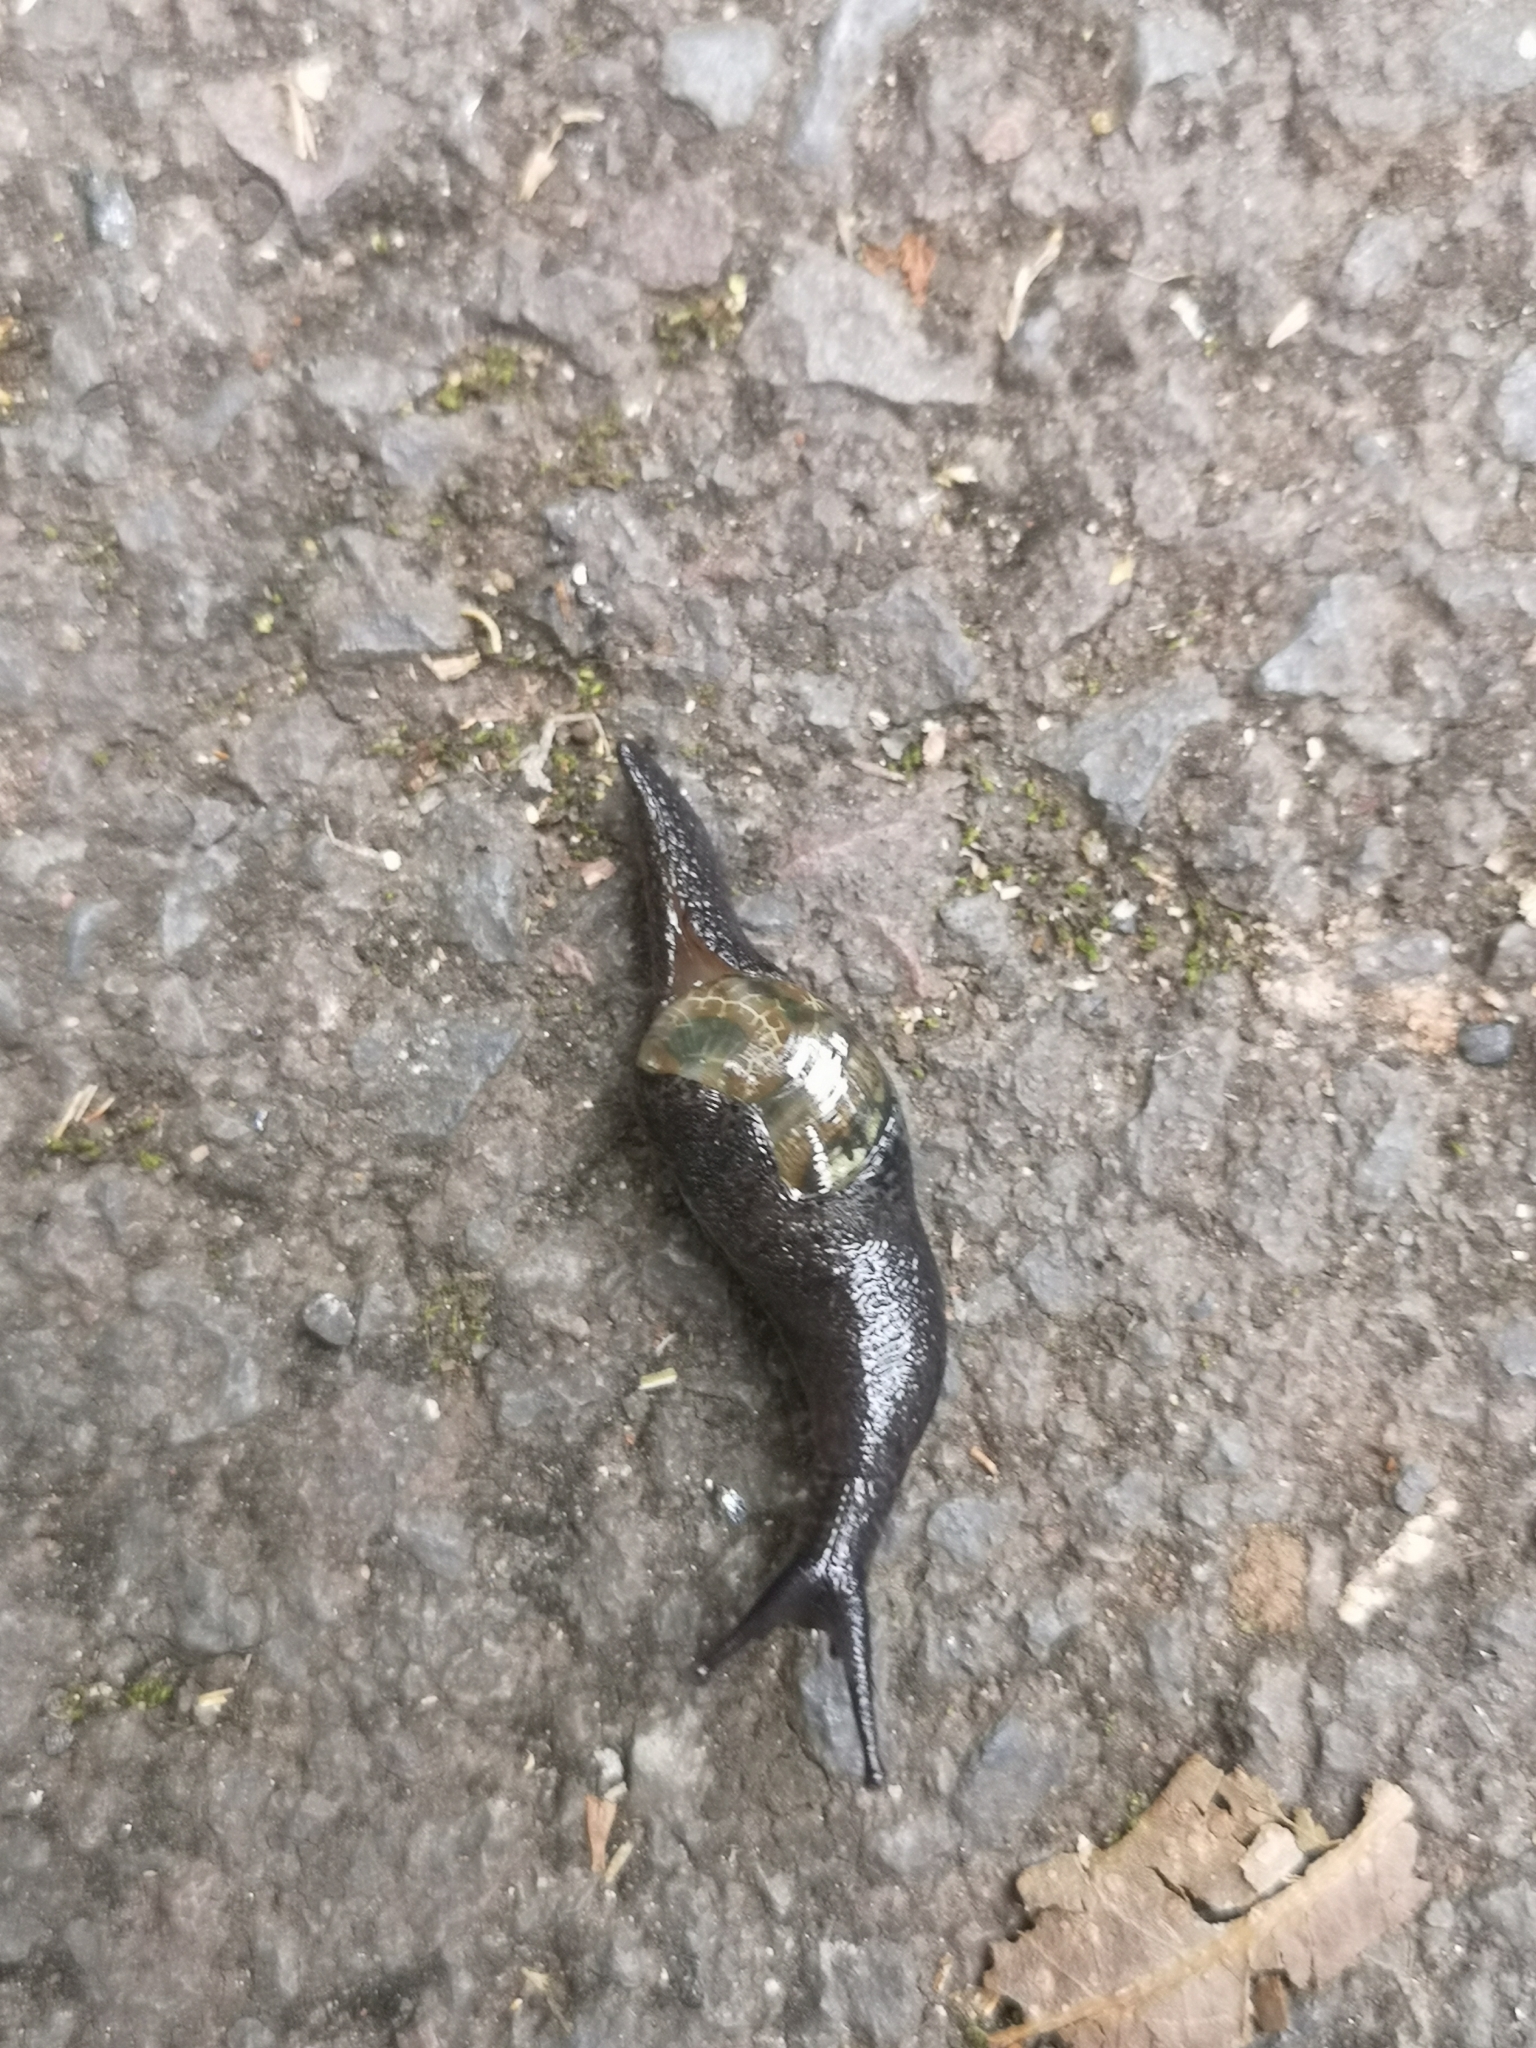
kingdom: Animalia
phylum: Mollusca
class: Gastropoda
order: Stylommatophora
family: Vitrinidae
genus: Insulivitrina
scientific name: Insulivitrina lamarckii
